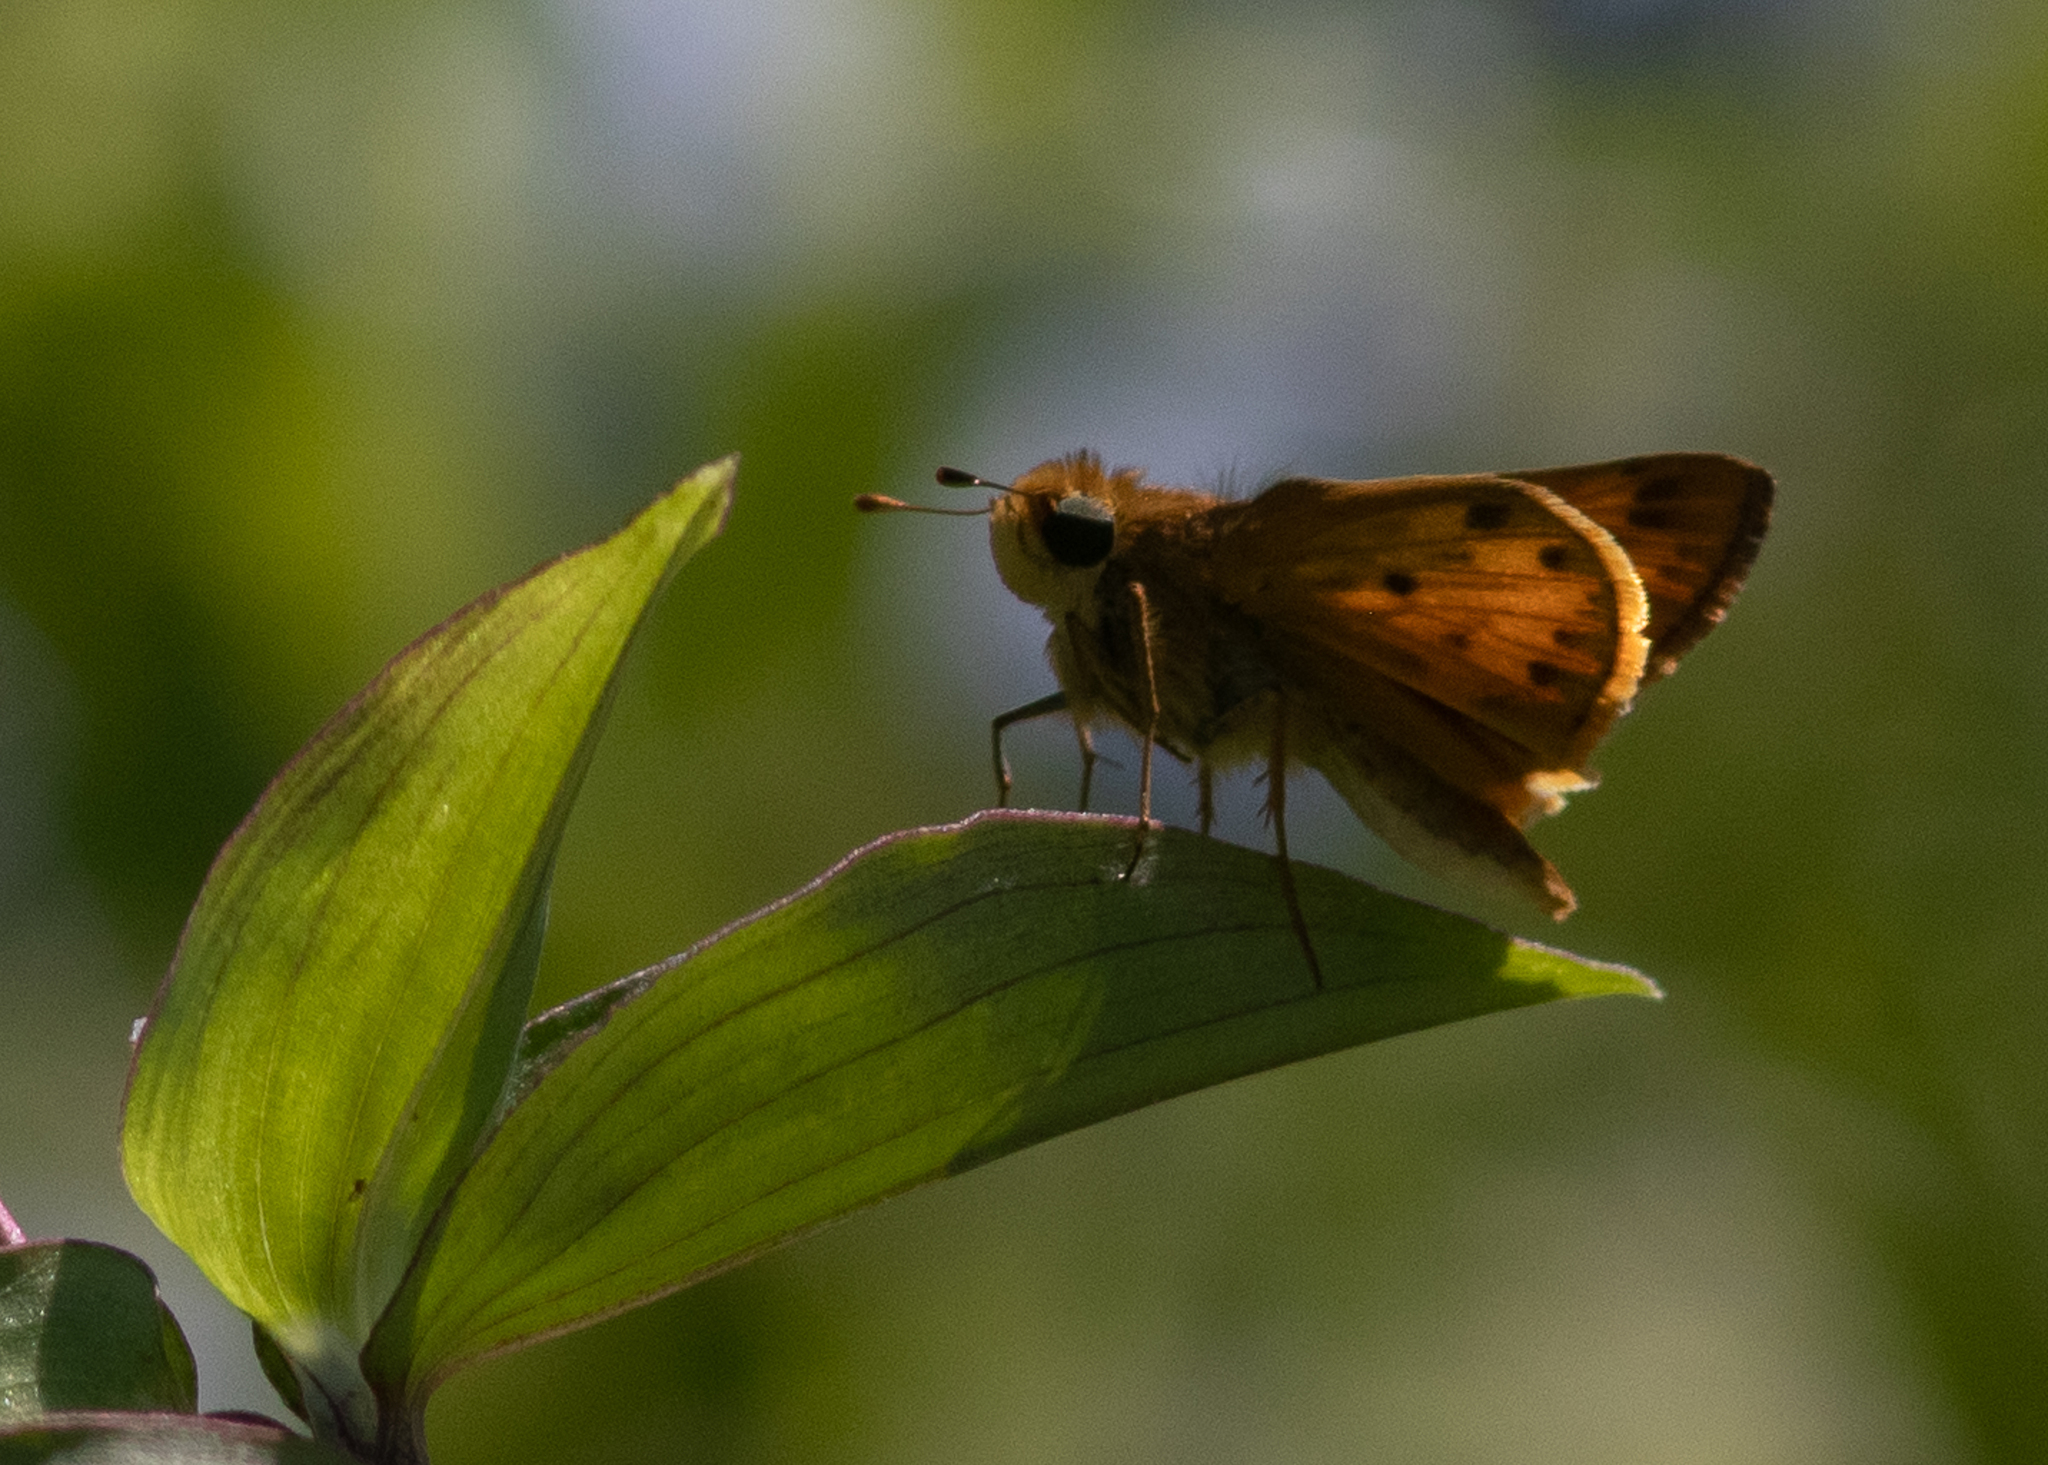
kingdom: Animalia
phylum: Arthropoda
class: Insecta
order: Lepidoptera
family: Hesperiidae
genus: Hylephila
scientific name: Hylephila phyleus
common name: Fiery skipper
